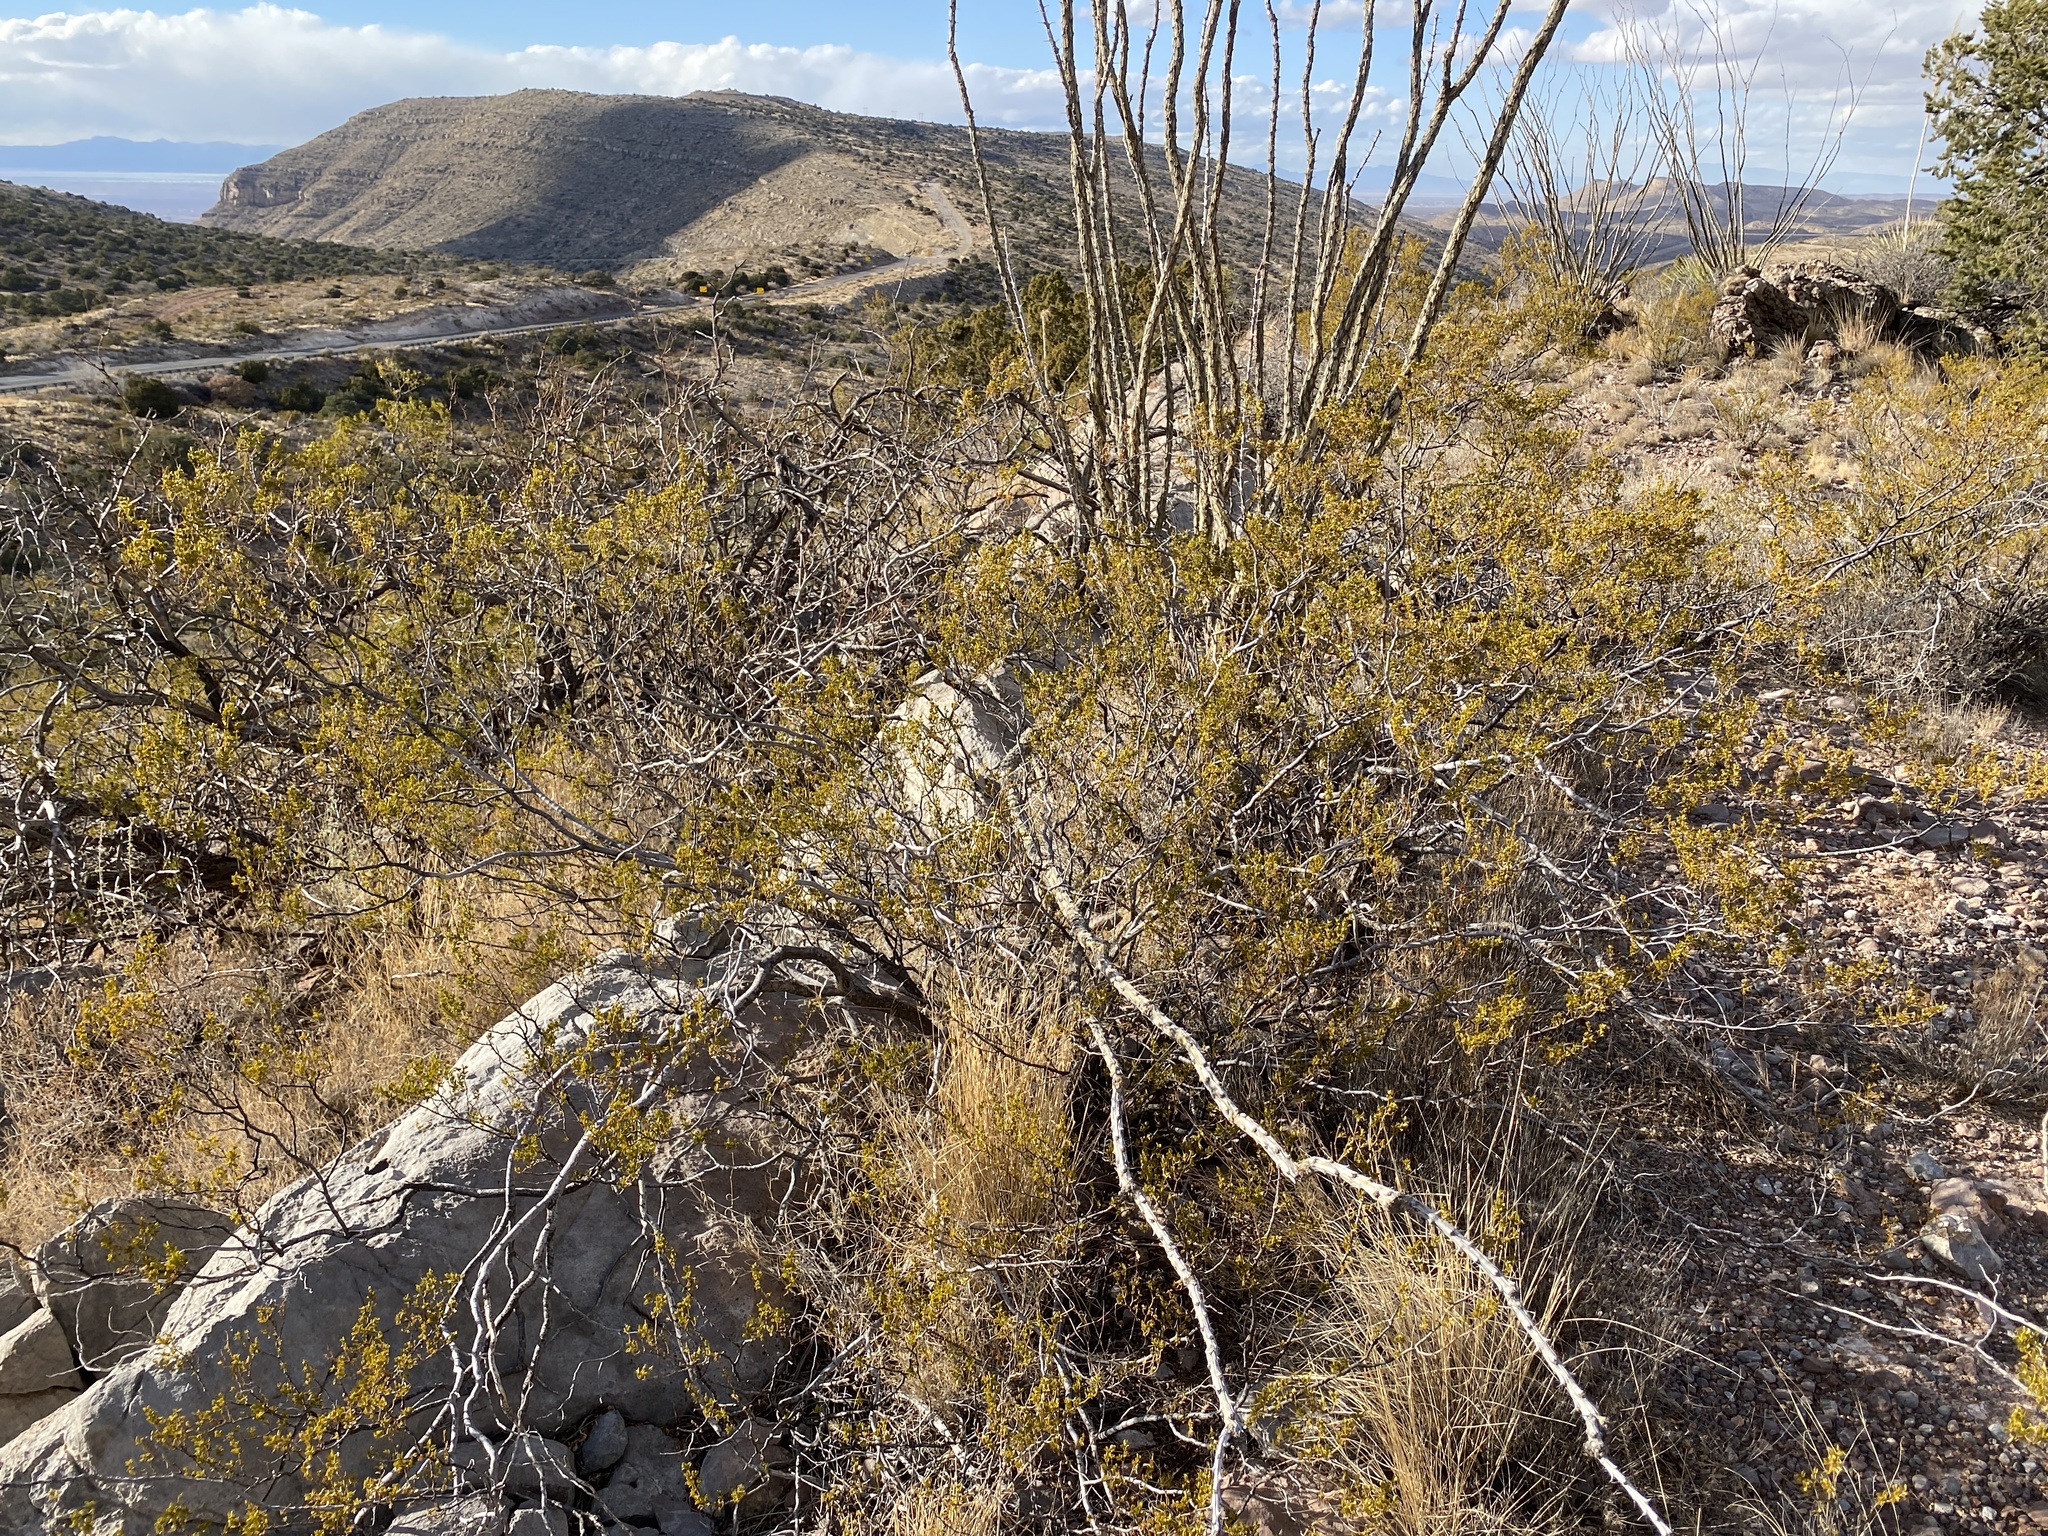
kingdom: Plantae
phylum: Tracheophyta
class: Magnoliopsida
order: Zygophyllales
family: Zygophyllaceae
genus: Larrea
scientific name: Larrea tridentata
